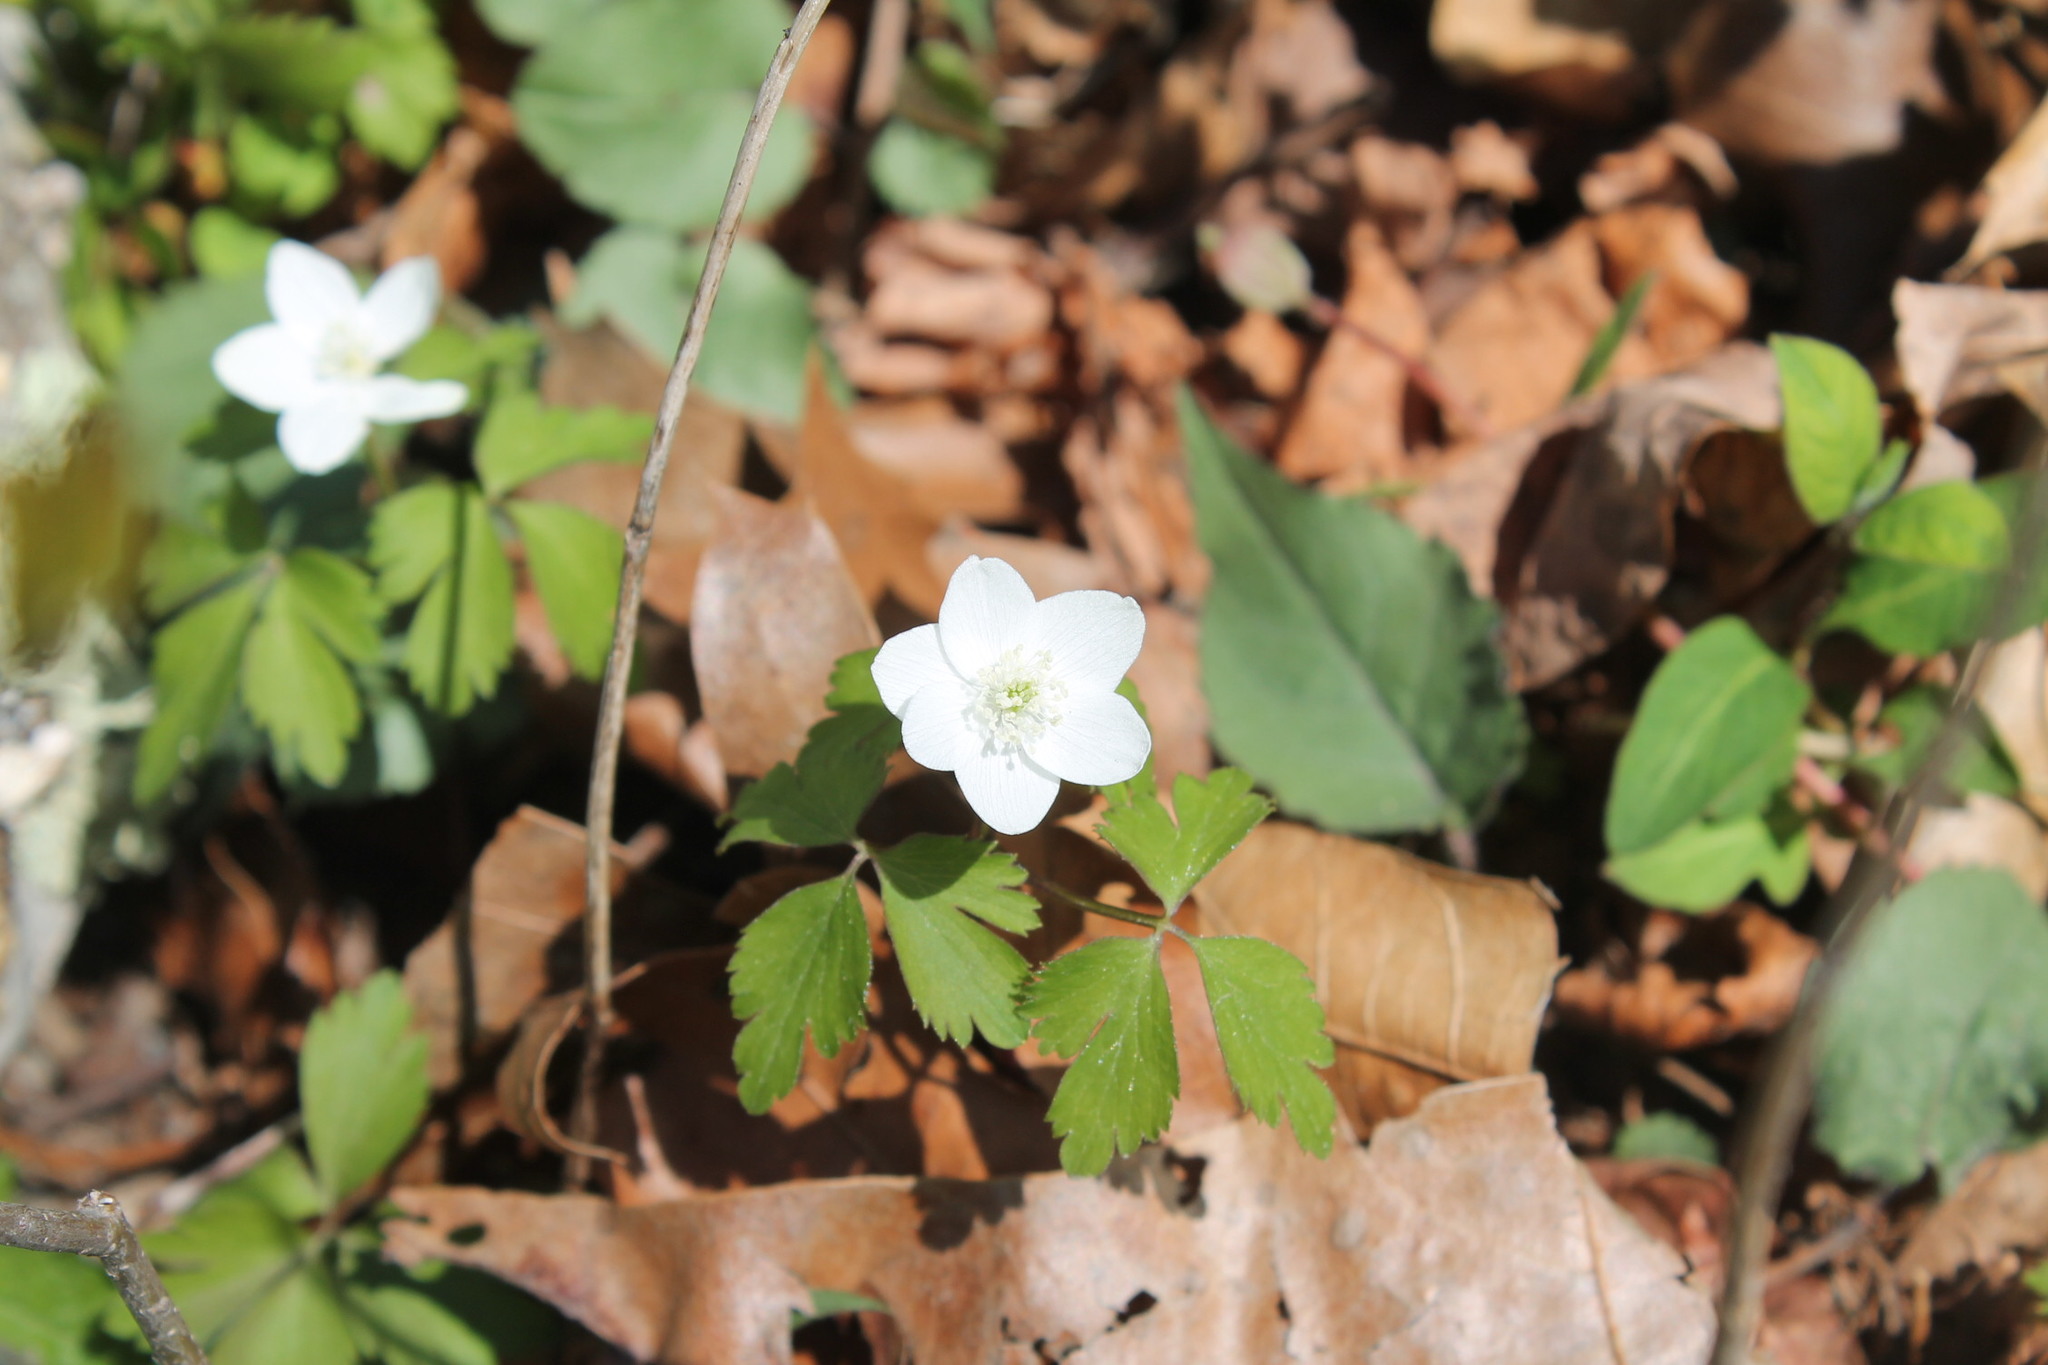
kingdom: Plantae
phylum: Tracheophyta
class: Magnoliopsida
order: Ranunculales
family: Ranunculaceae
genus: Anemone
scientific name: Anemone quinquefolia
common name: Wood anemone
